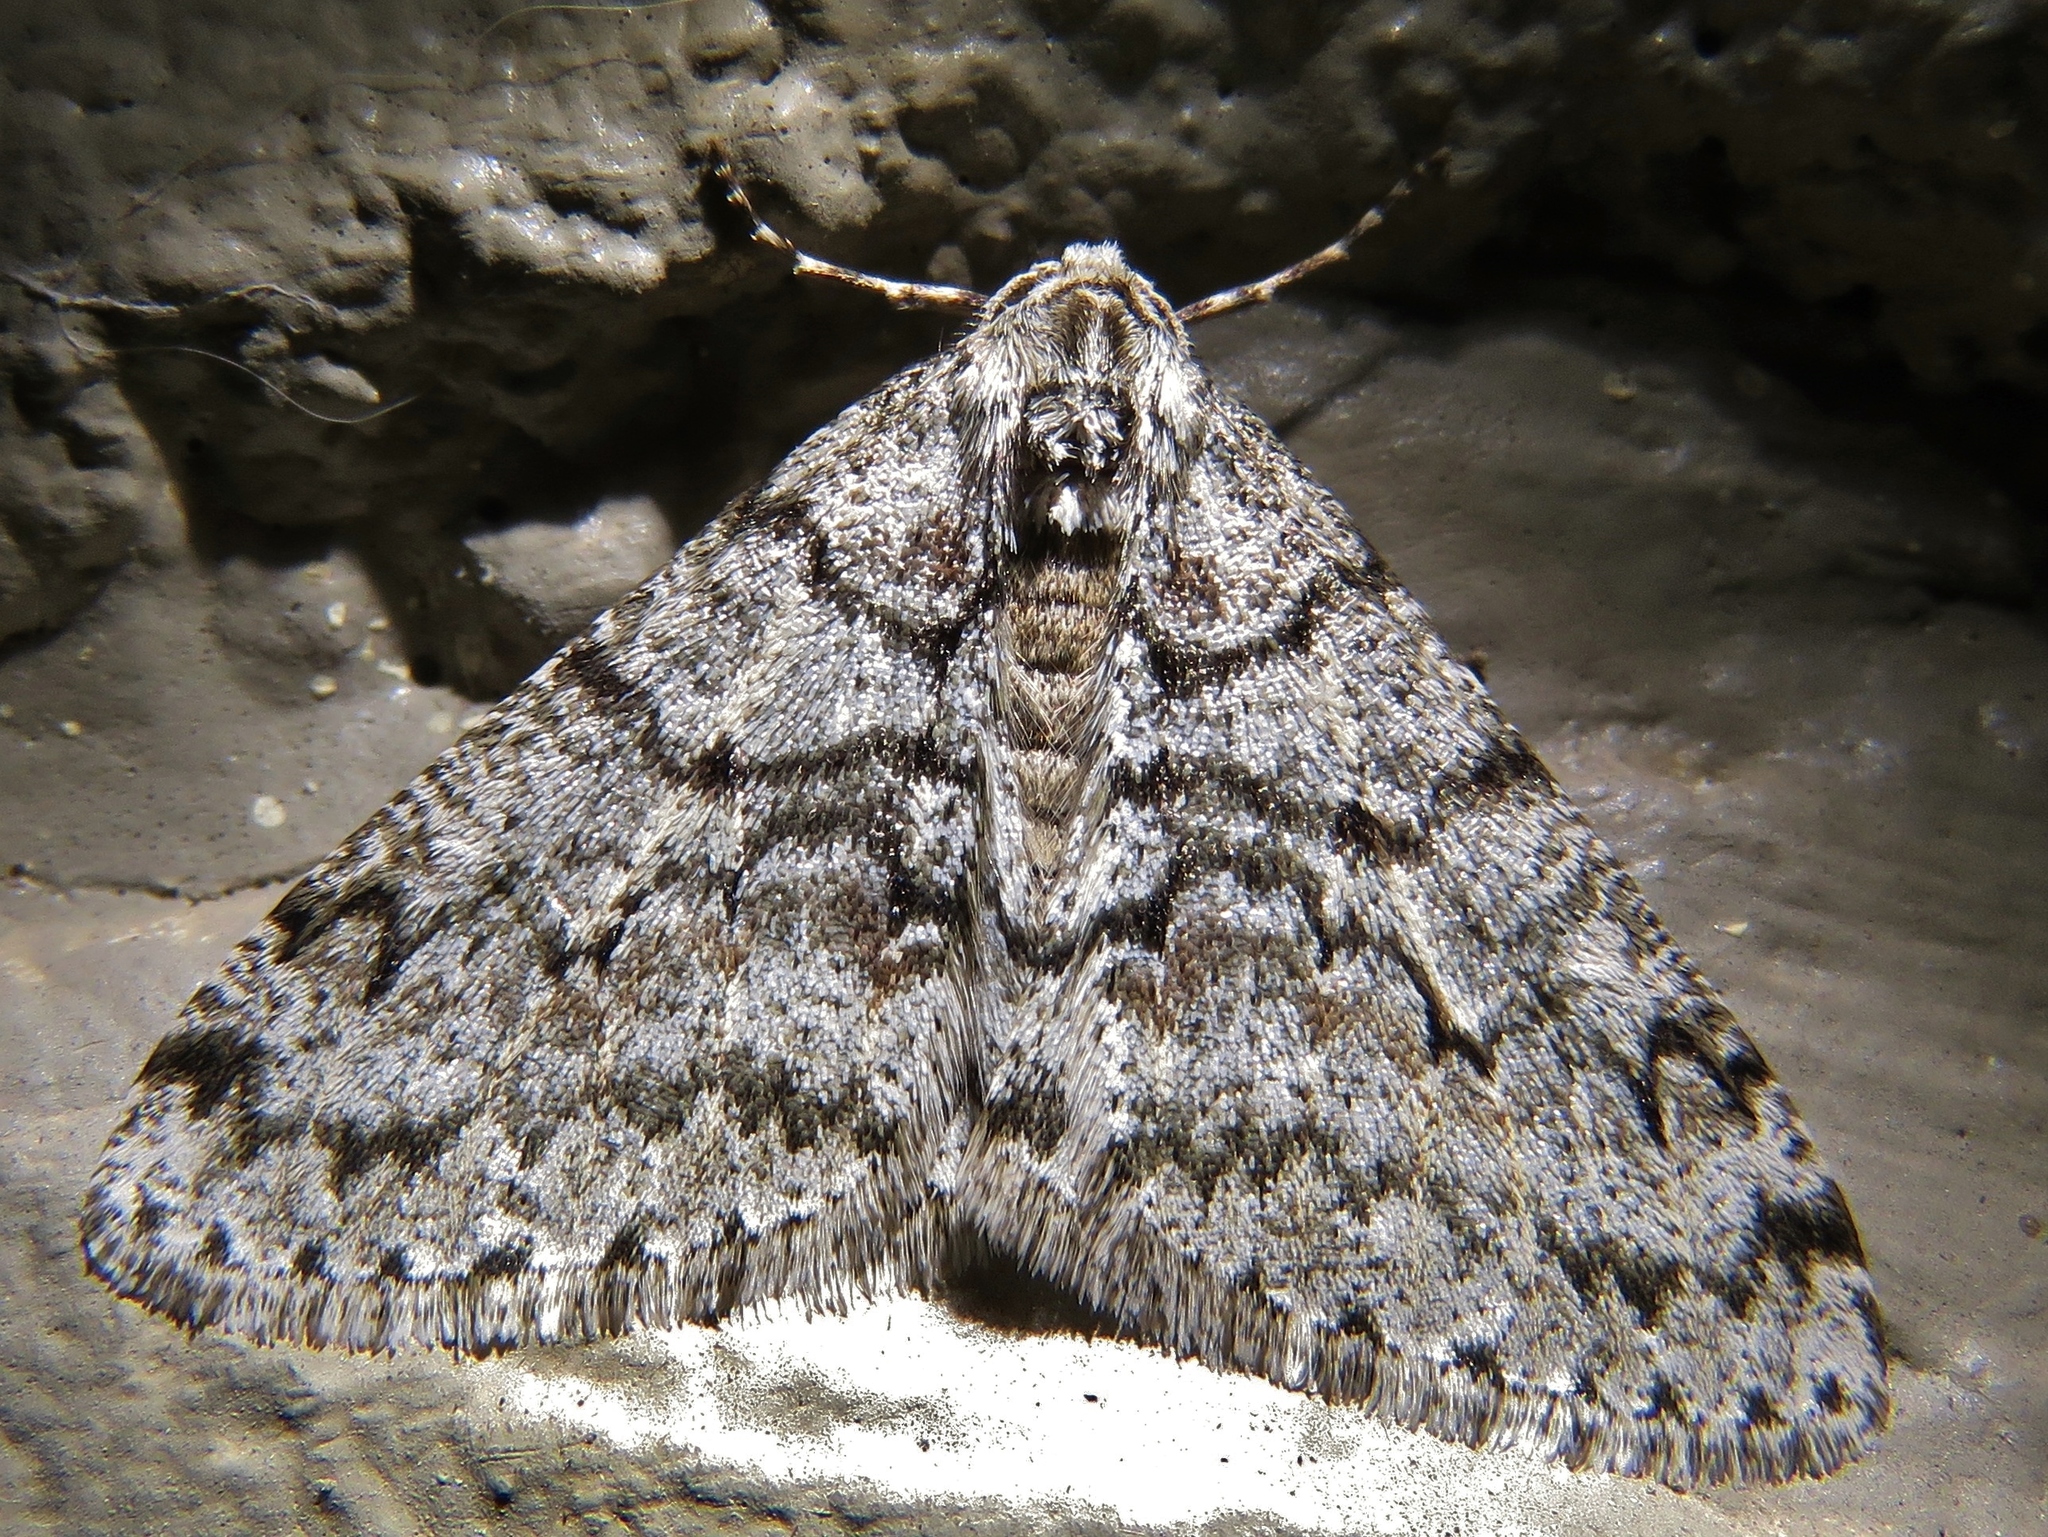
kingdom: Animalia
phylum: Arthropoda
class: Insecta
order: Lepidoptera
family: Geometridae
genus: Phigalia
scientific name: Phigalia denticulata
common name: Toothed phigalia
